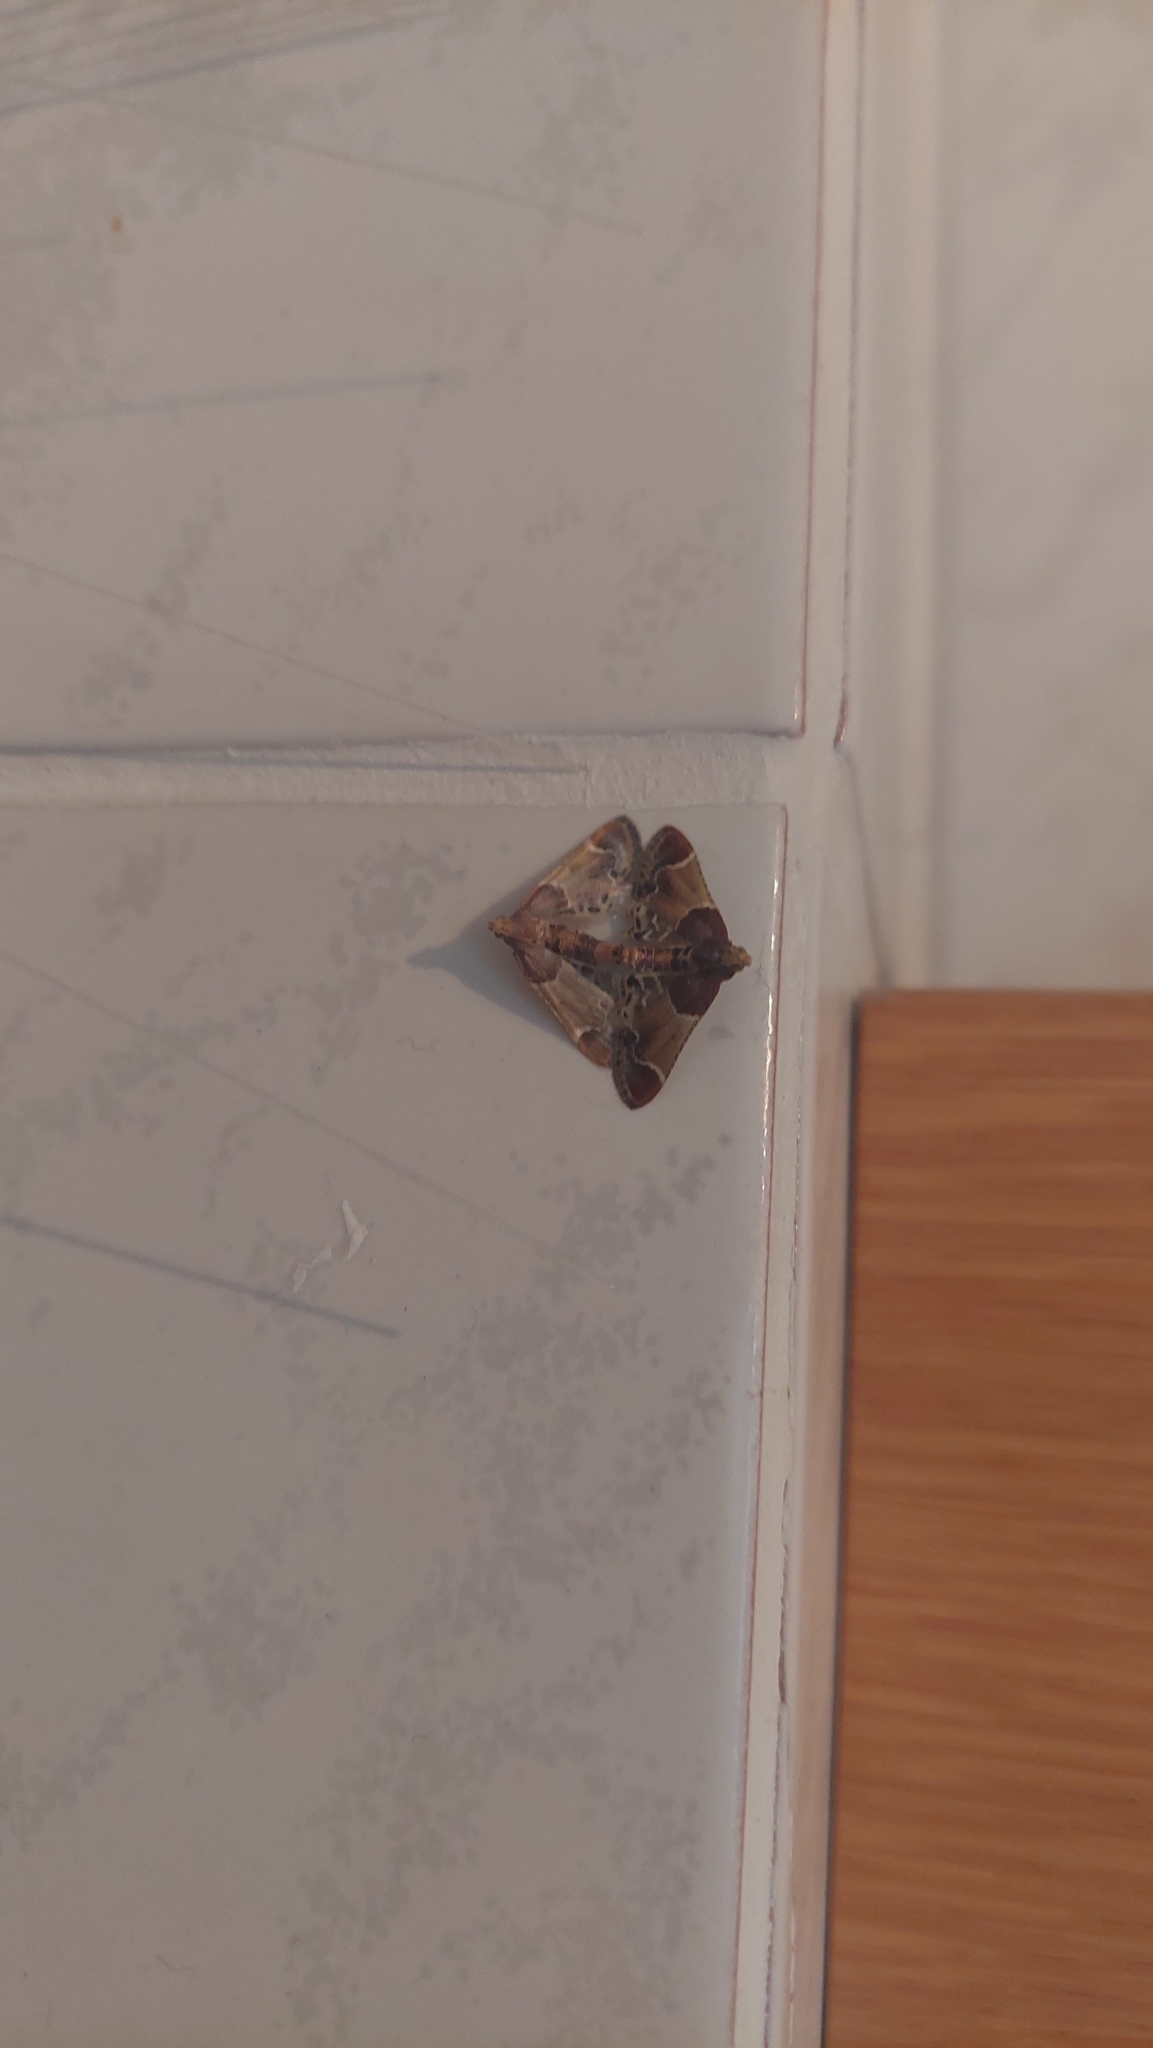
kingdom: Animalia
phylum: Arthropoda
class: Insecta
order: Lepidoptera
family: Pyralidae
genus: Pyralis
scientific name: Pyralis farinalis
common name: Meal moth
